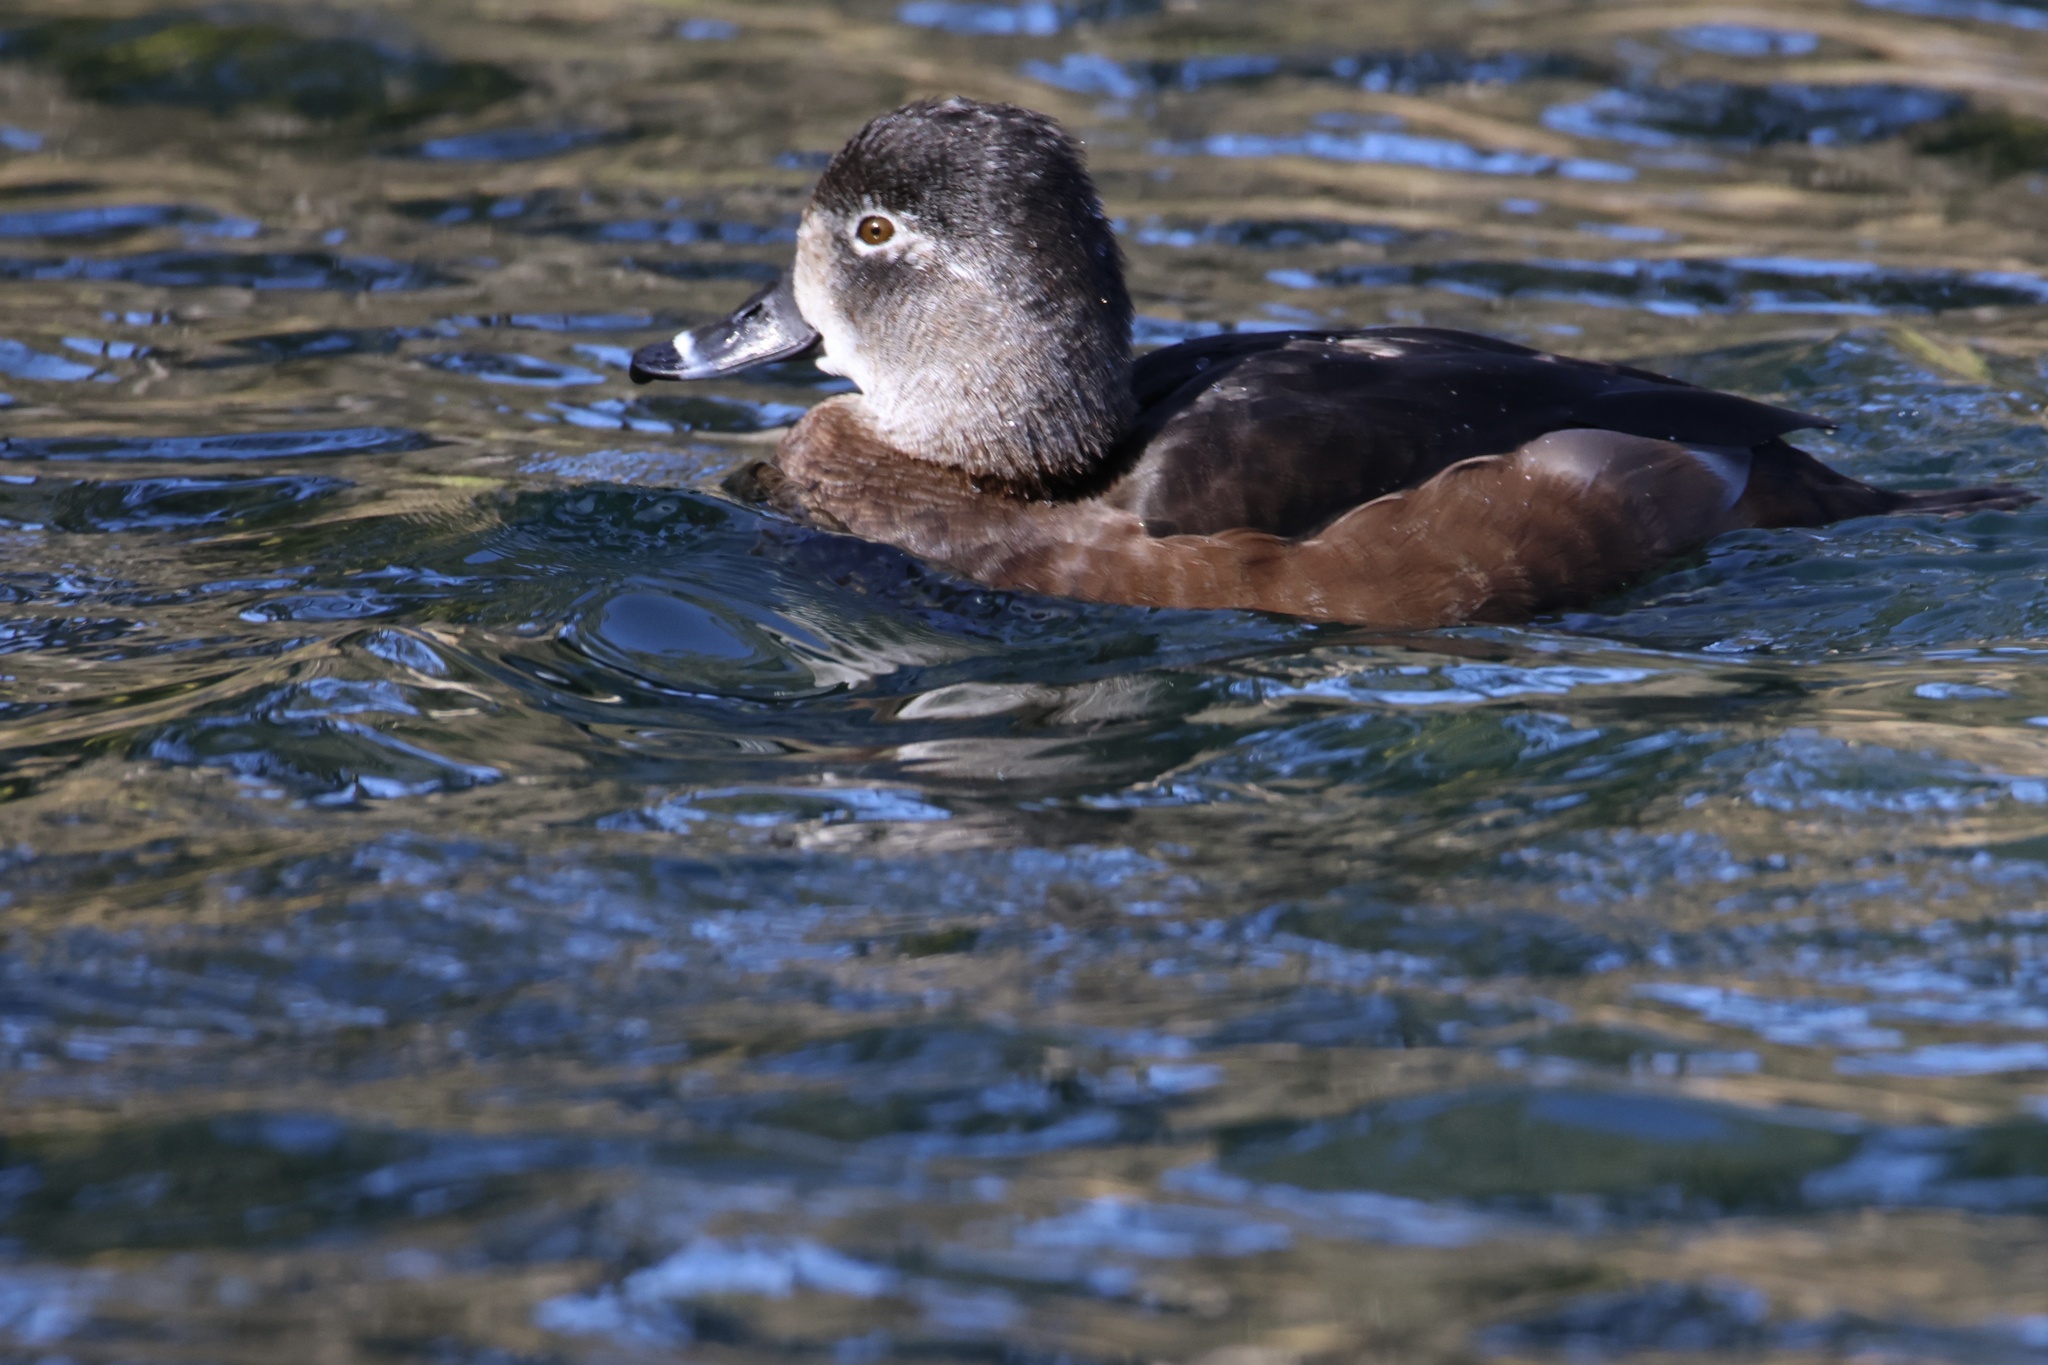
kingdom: Animalia
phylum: Chordata
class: Aves
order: Anseriformes
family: Anatidae
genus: Aythya
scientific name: Aythya collaris
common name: Ring-necked duck
